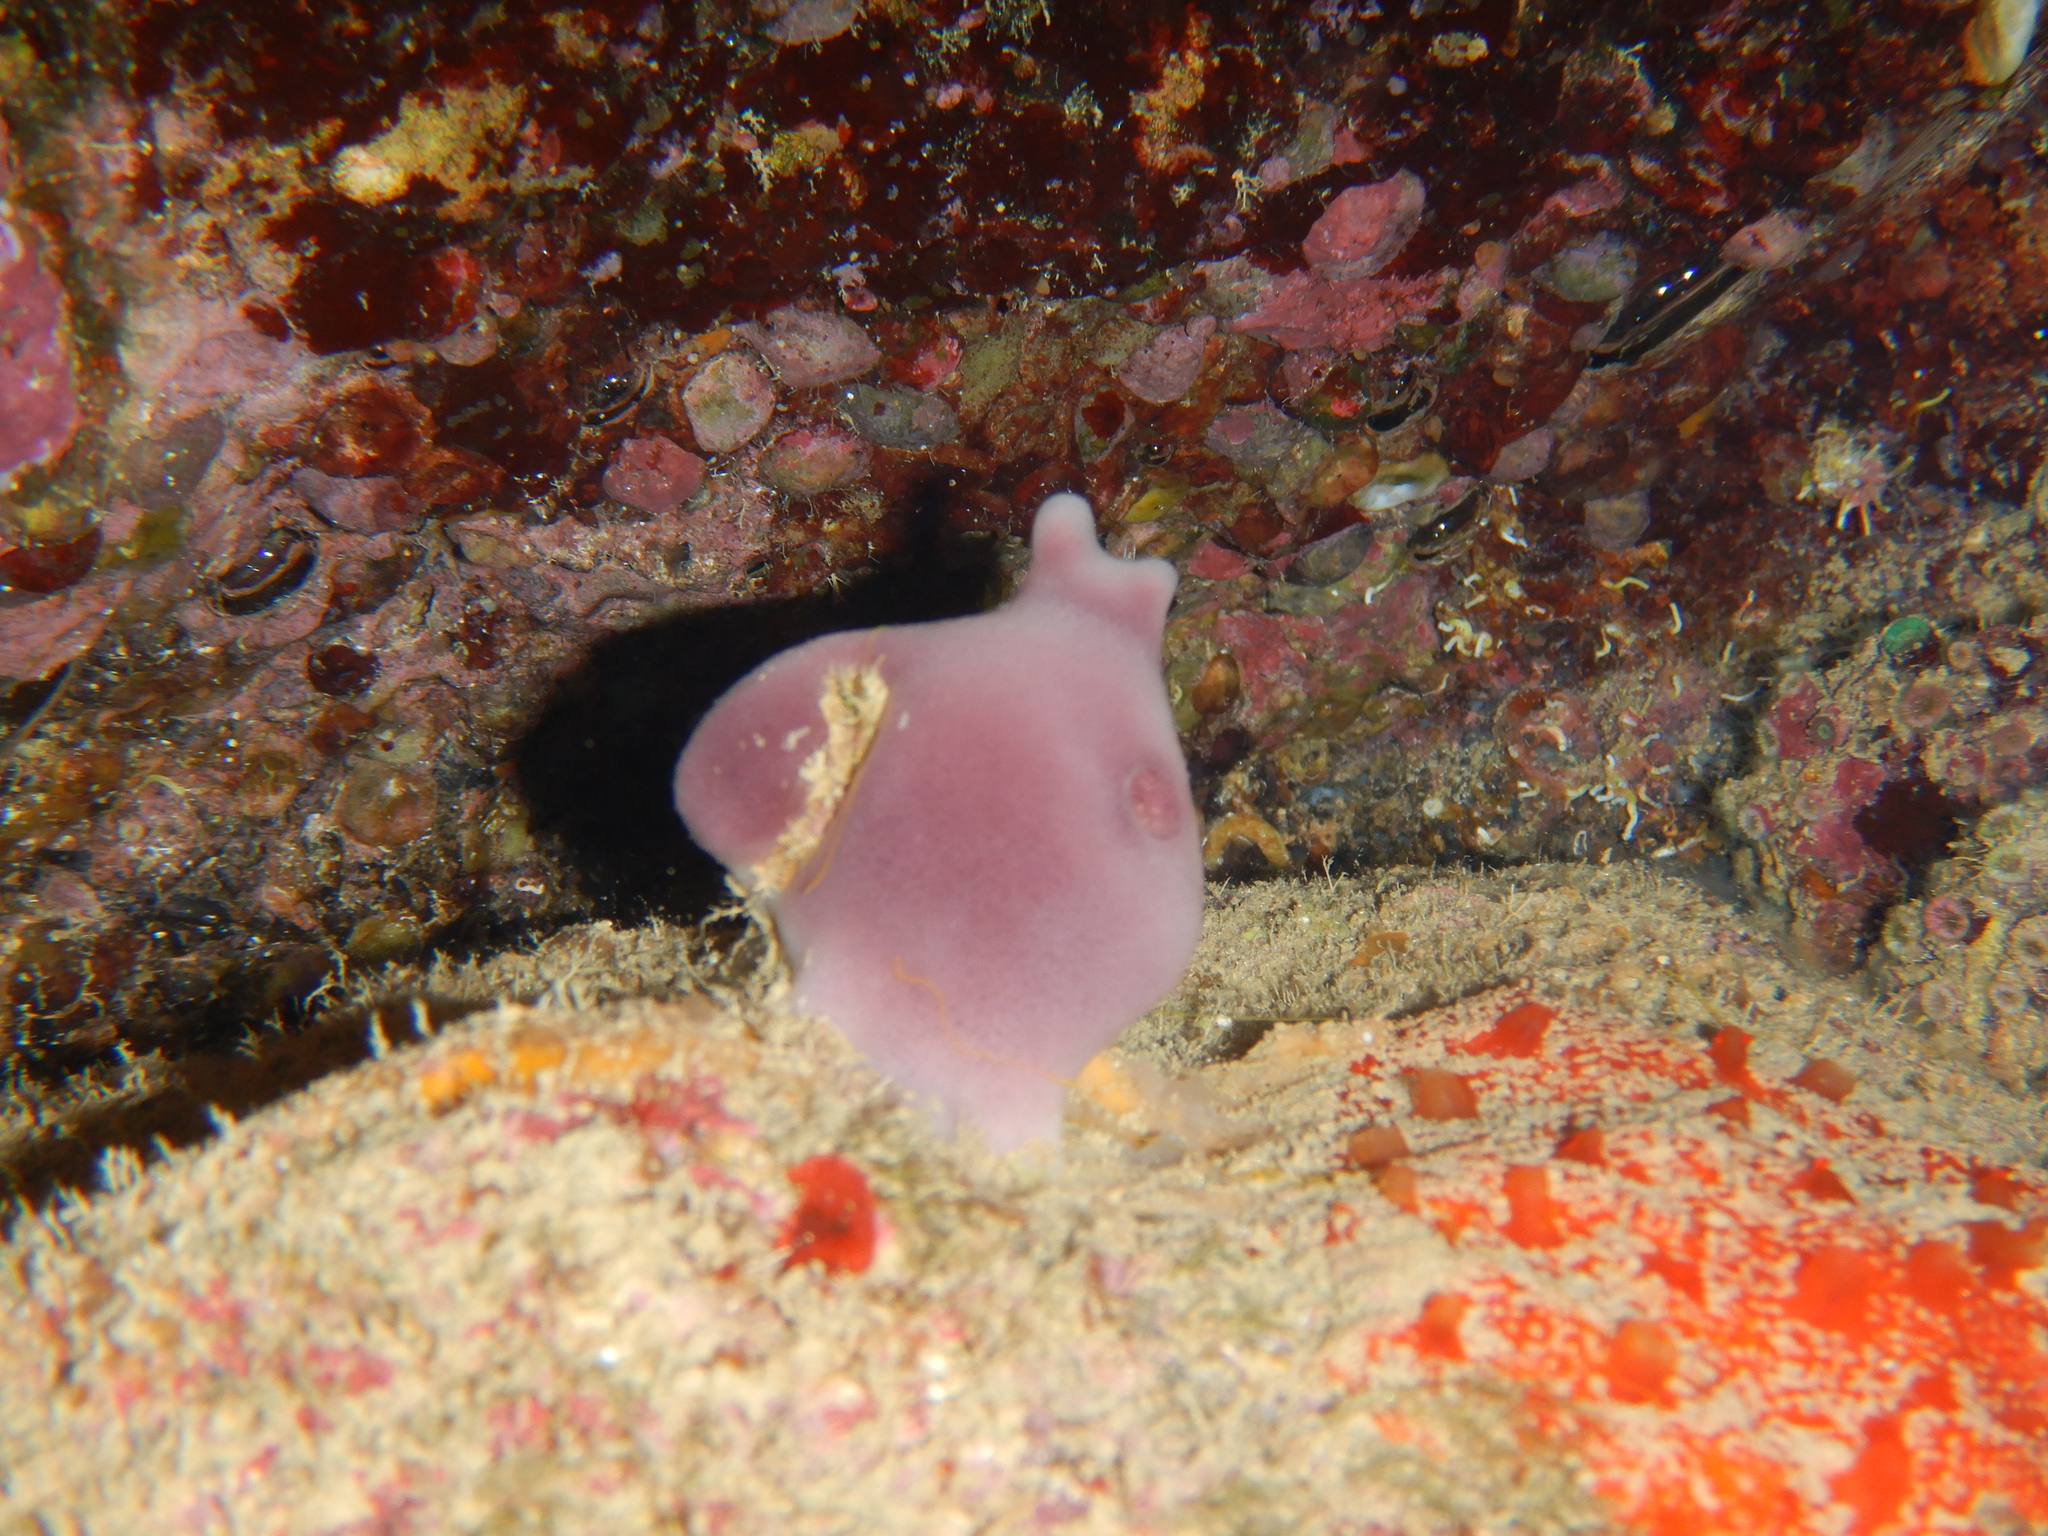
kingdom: Animalia
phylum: Porifera
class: Demospongiae
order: Haplosclerida
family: Petrosiidae
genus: Petrosia
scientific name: Petrosia ficiformis
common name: Stony sponge
